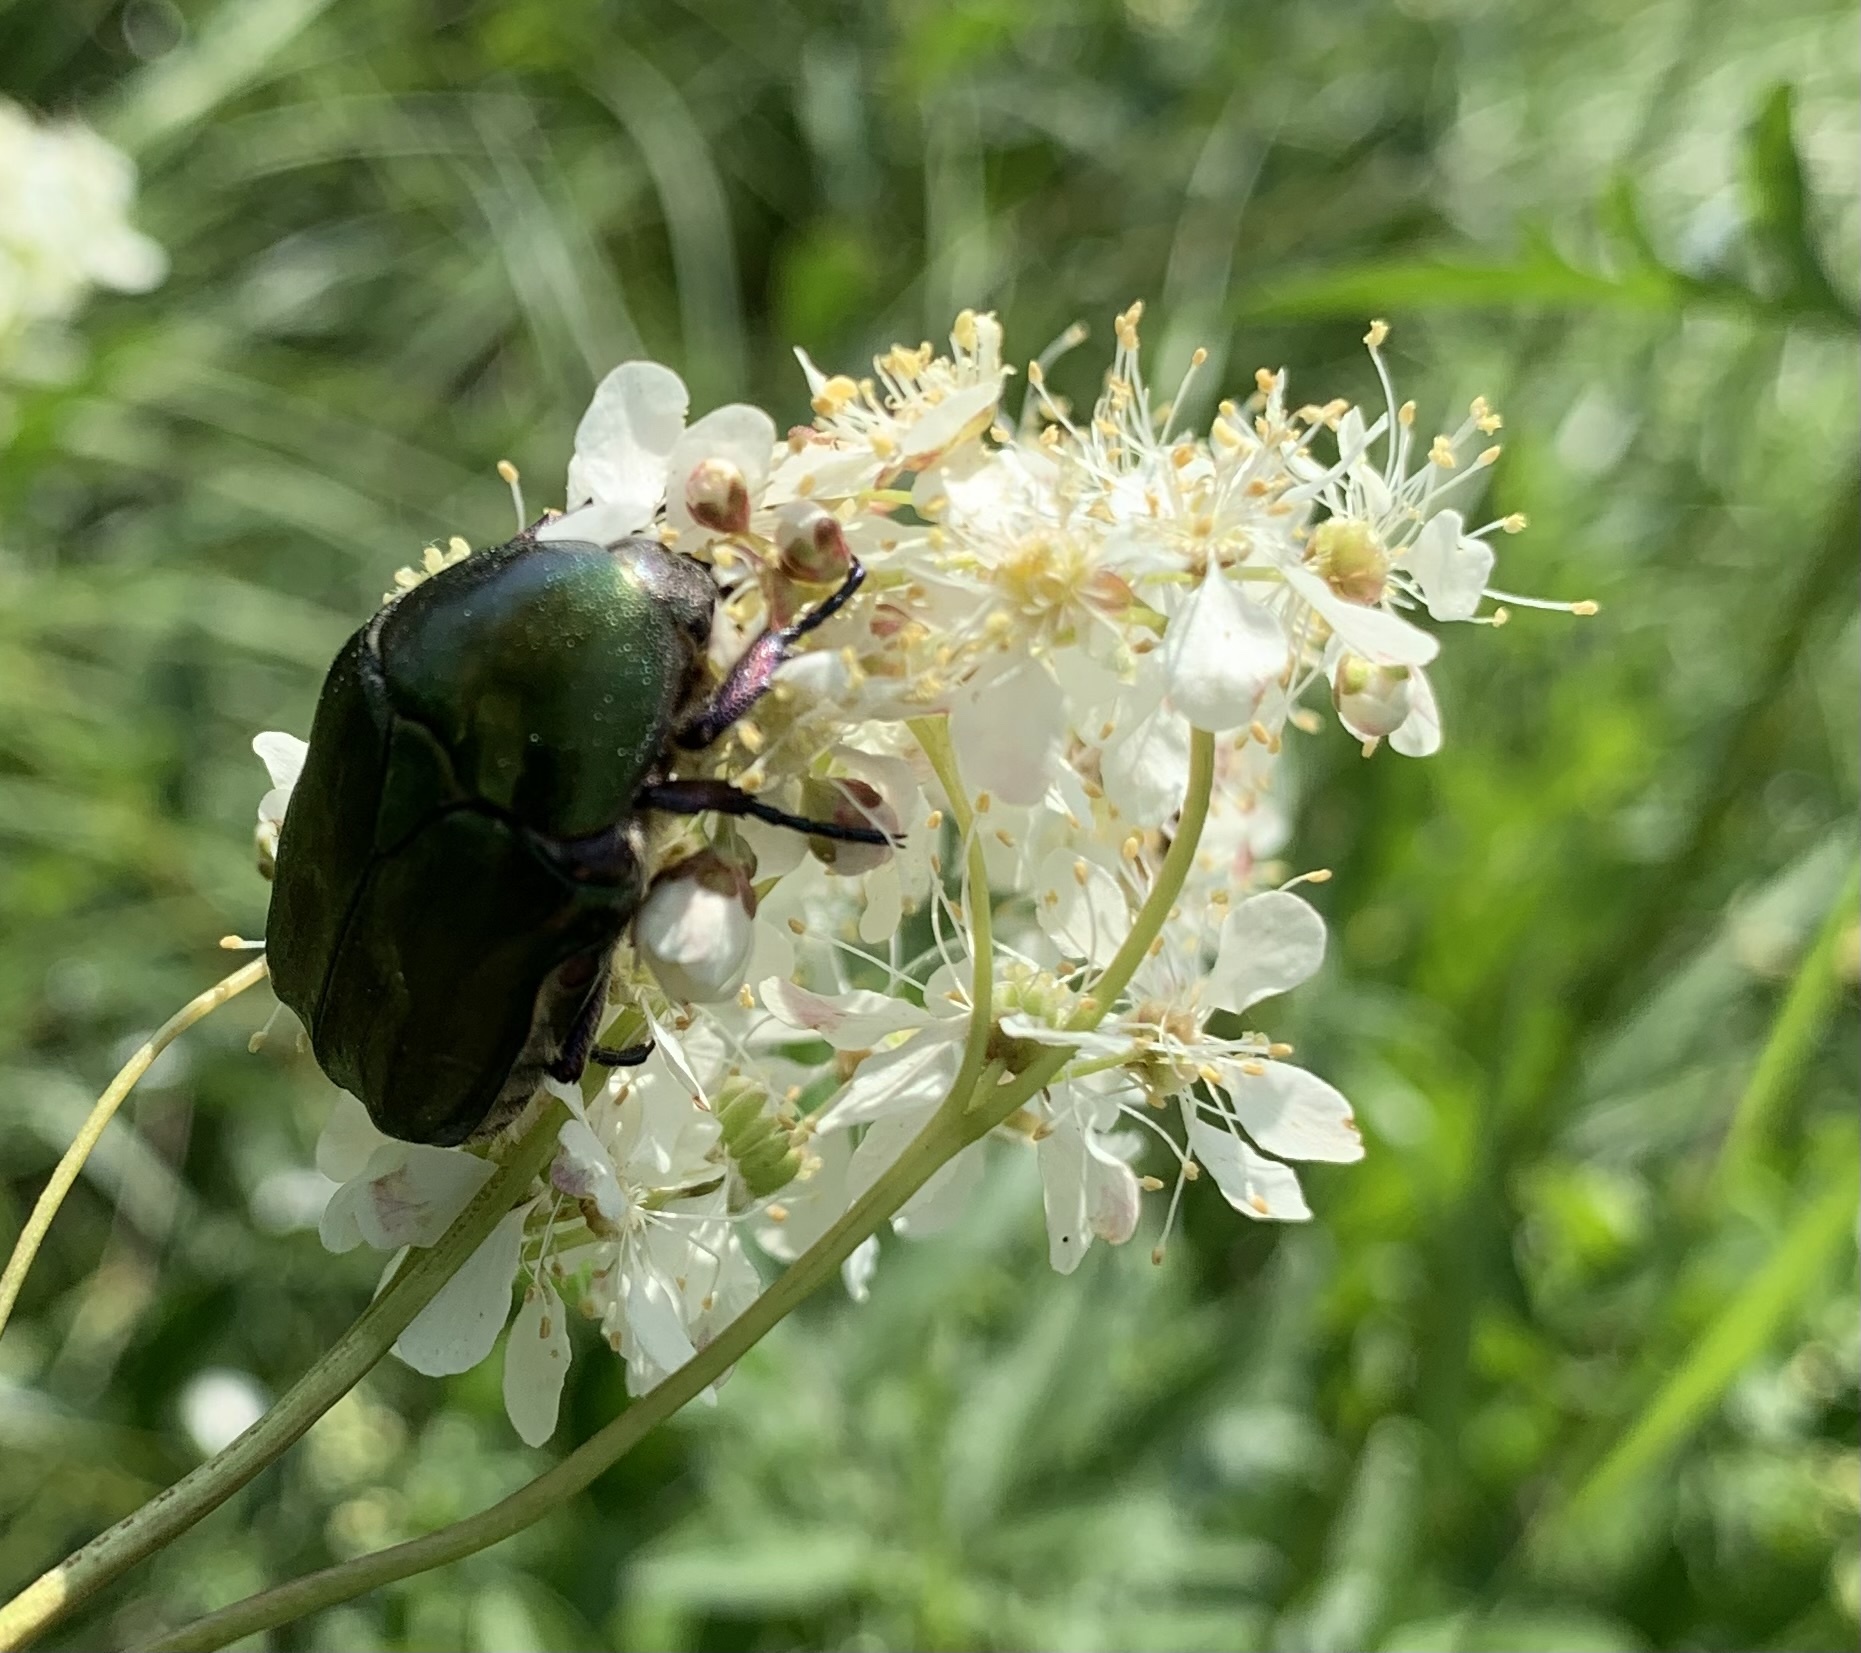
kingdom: Animalia
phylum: Arthropoda
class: Insecta
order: Coleoptera
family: Scarabaeidae
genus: Protaetia
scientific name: Protaetia cuprea
